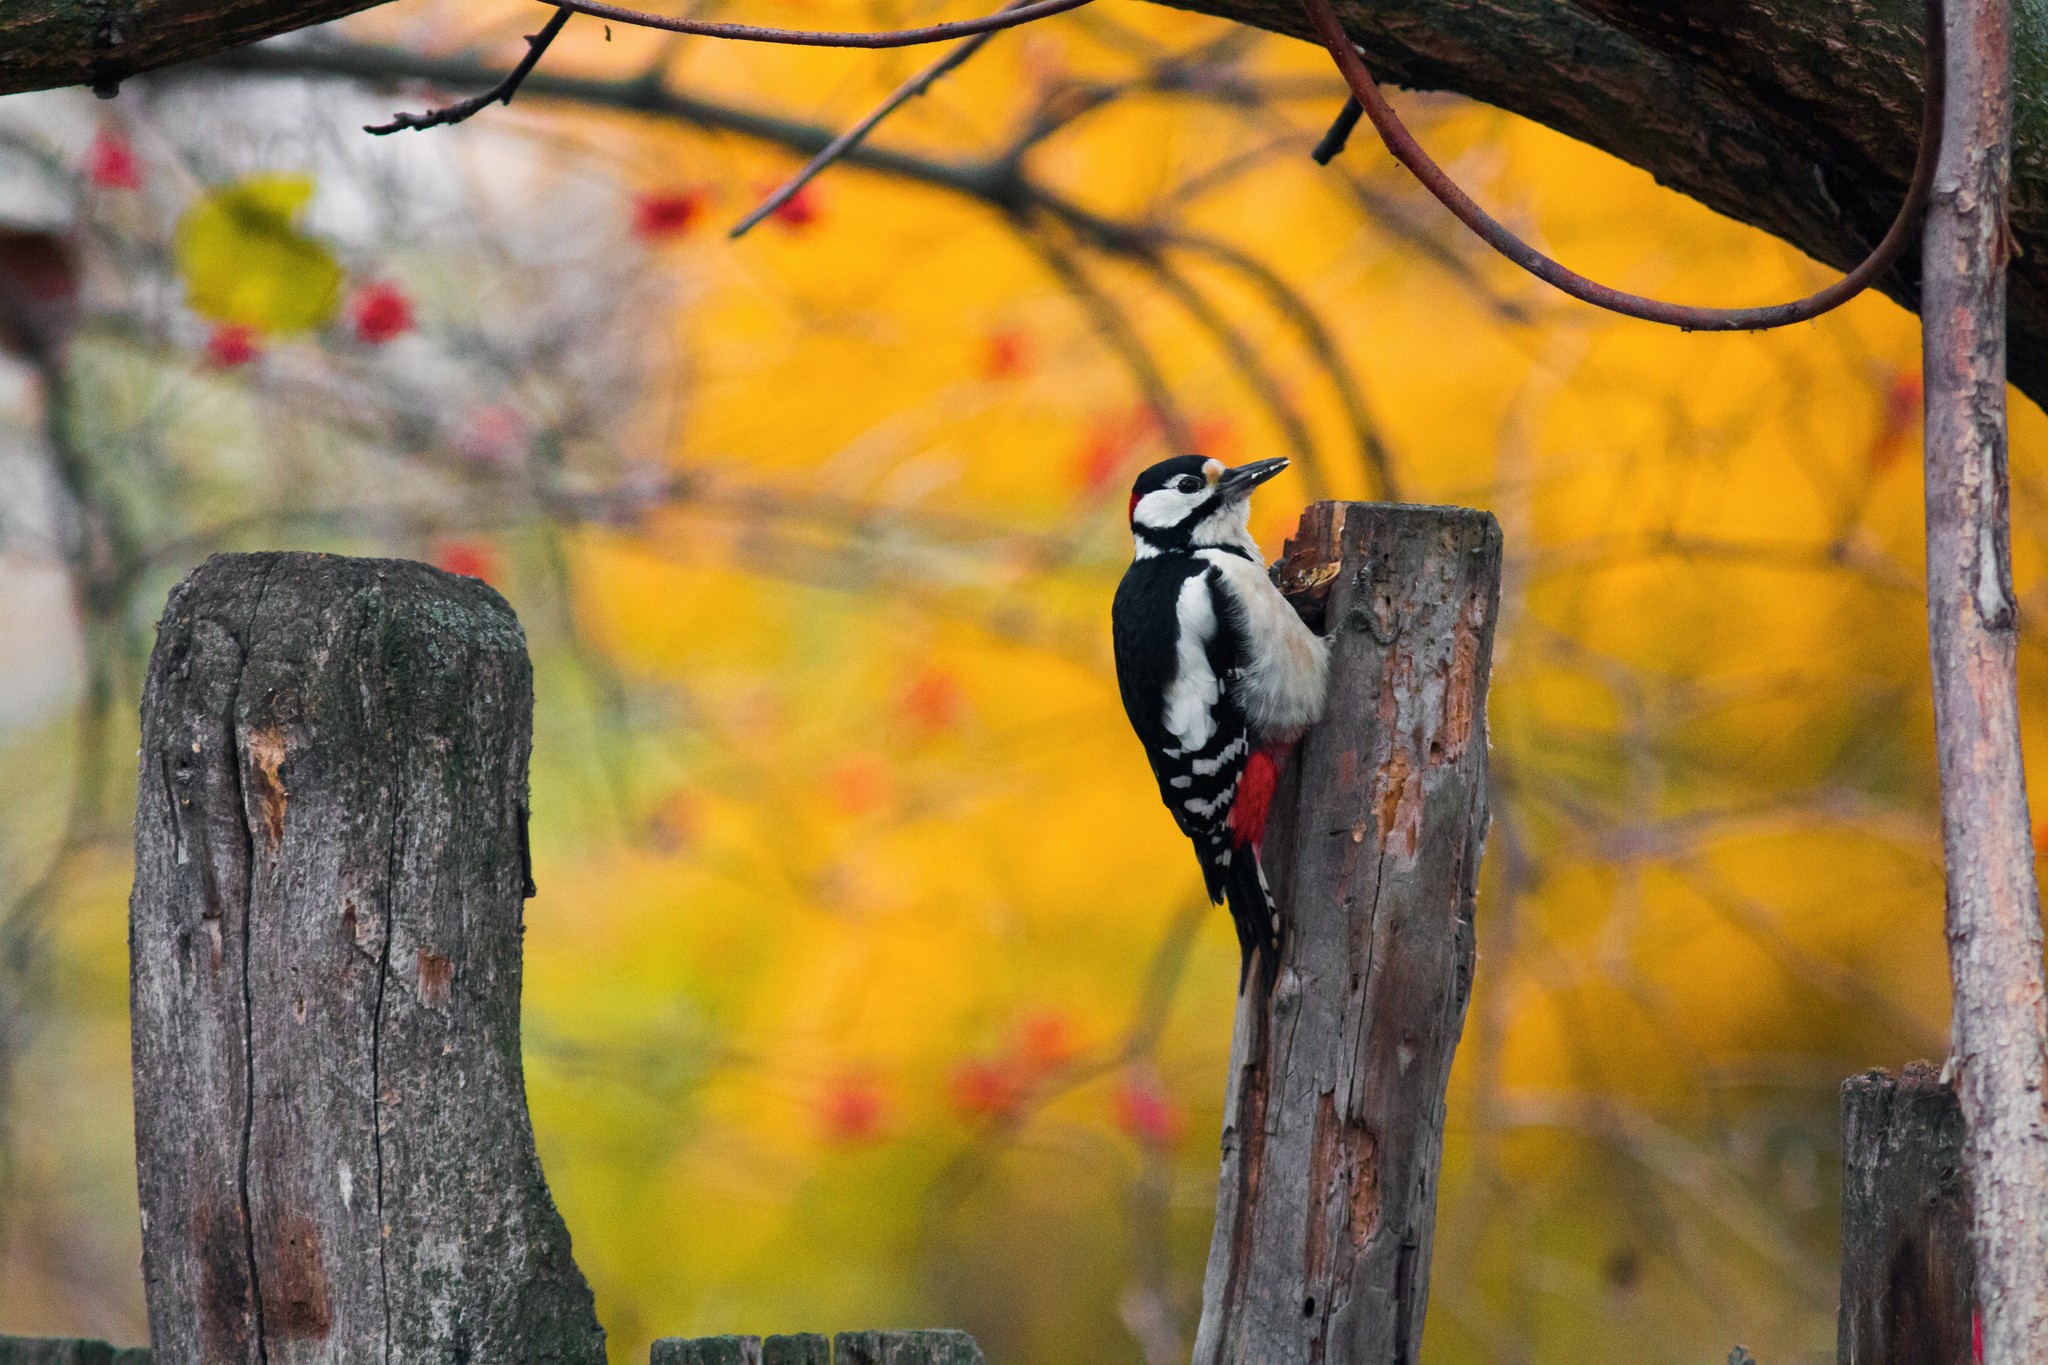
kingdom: Animalia
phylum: Chordata
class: Aves
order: Piciformes
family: Picidae
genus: Dendrocopos
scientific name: Dendrocopos major
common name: Great spotted woodpecker
